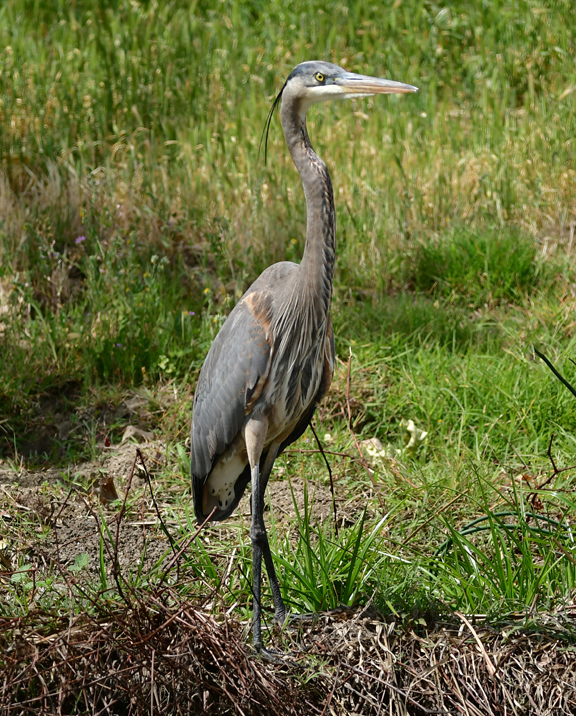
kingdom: Animalia
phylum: Chordata
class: Aves
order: Pelecaniformes
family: Ardeidae
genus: Ardea
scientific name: Ardea herodias
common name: Great blue heron
